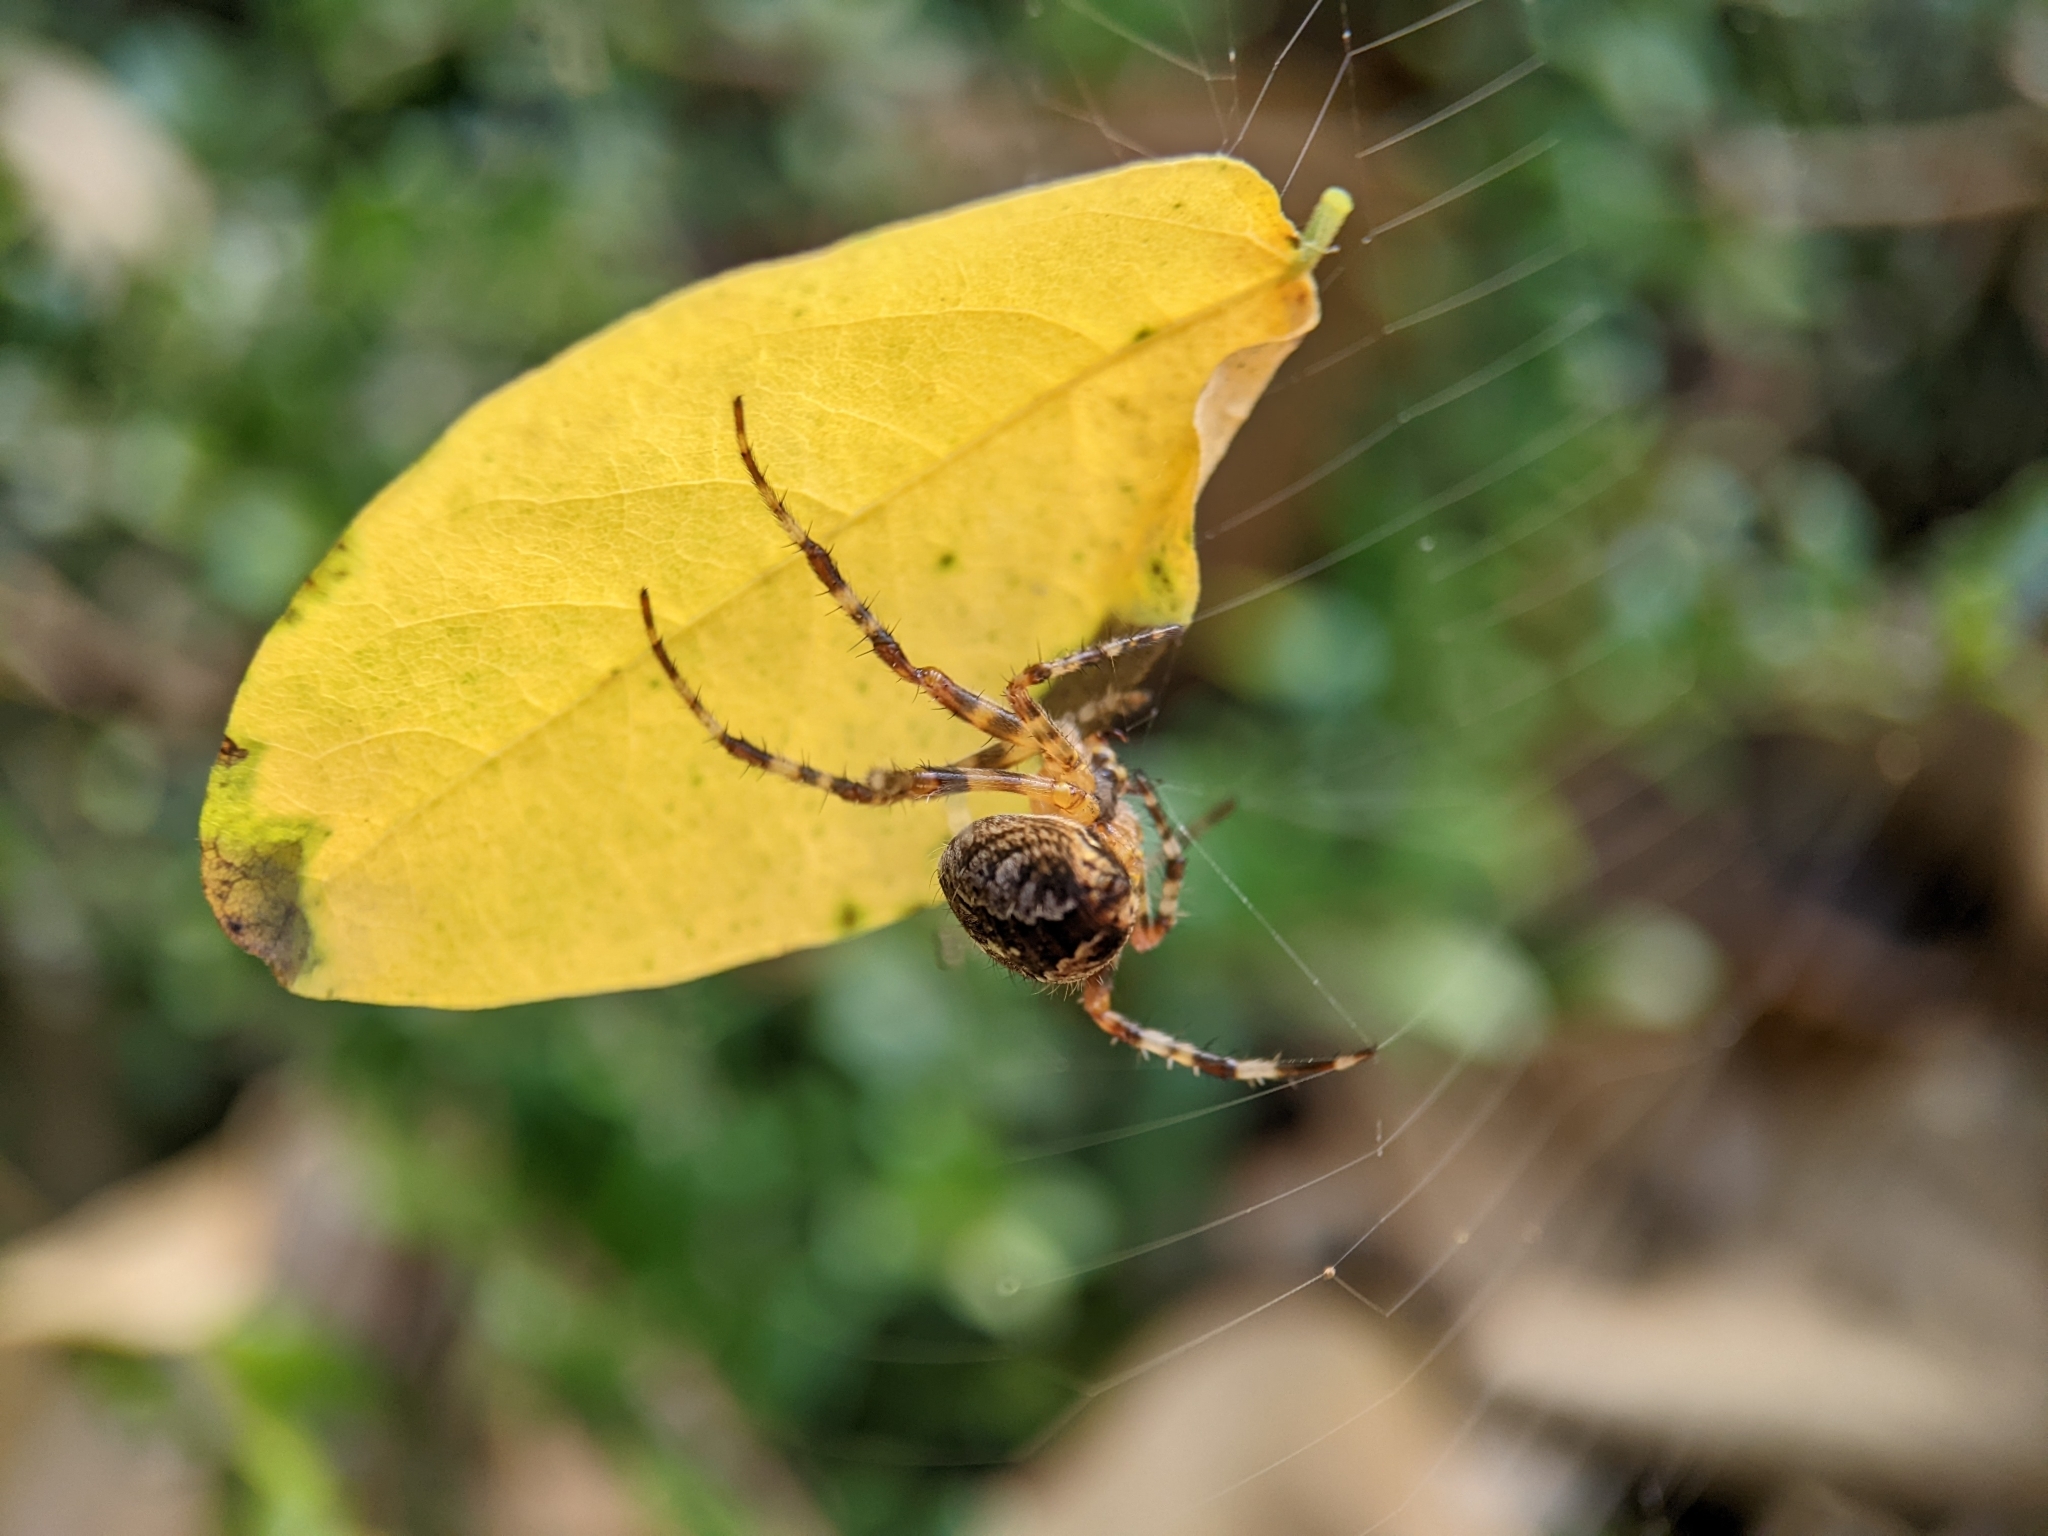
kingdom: Animalia
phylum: Arthropoda
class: Arachnida
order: Araneae
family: Araneidae
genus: Araneus
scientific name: Araneus diadematus
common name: Cross orbweaver
